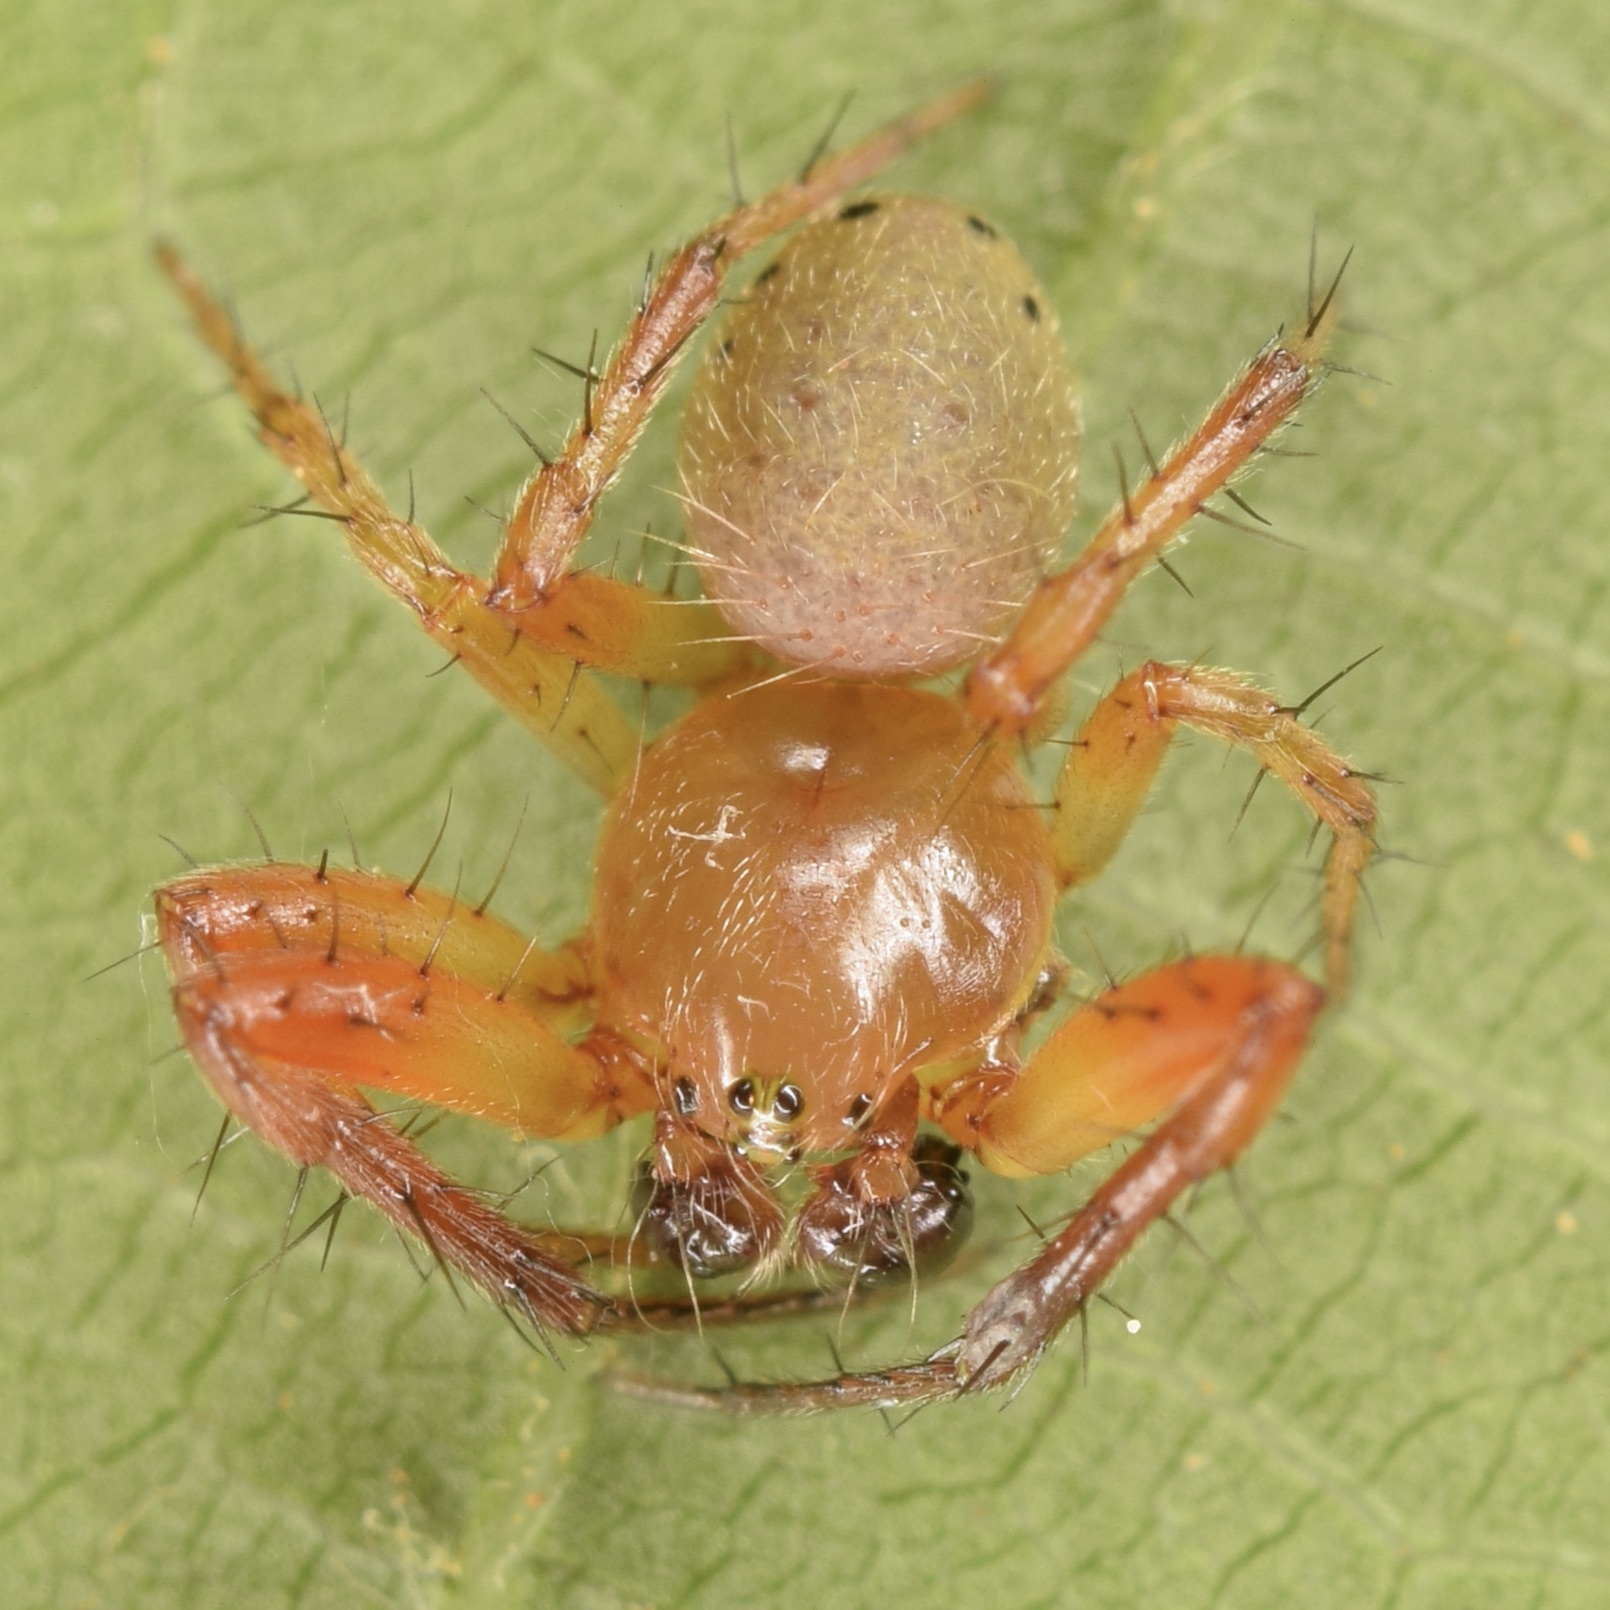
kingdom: Animalia
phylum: Arthropoda
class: Arachnida
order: Araneae
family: Araneidae
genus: Araniella
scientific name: Araniella displicata
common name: Sixspotted orb weaver
